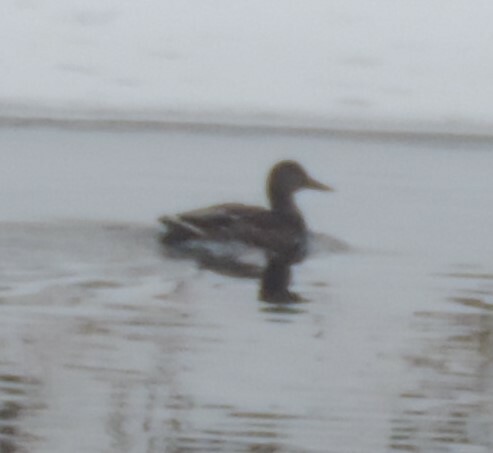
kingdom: Animalia
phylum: Chordata
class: Aves
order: Anseriformes
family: Anatidae
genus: Anas
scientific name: Anas platyrhynchos
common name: Mallard
